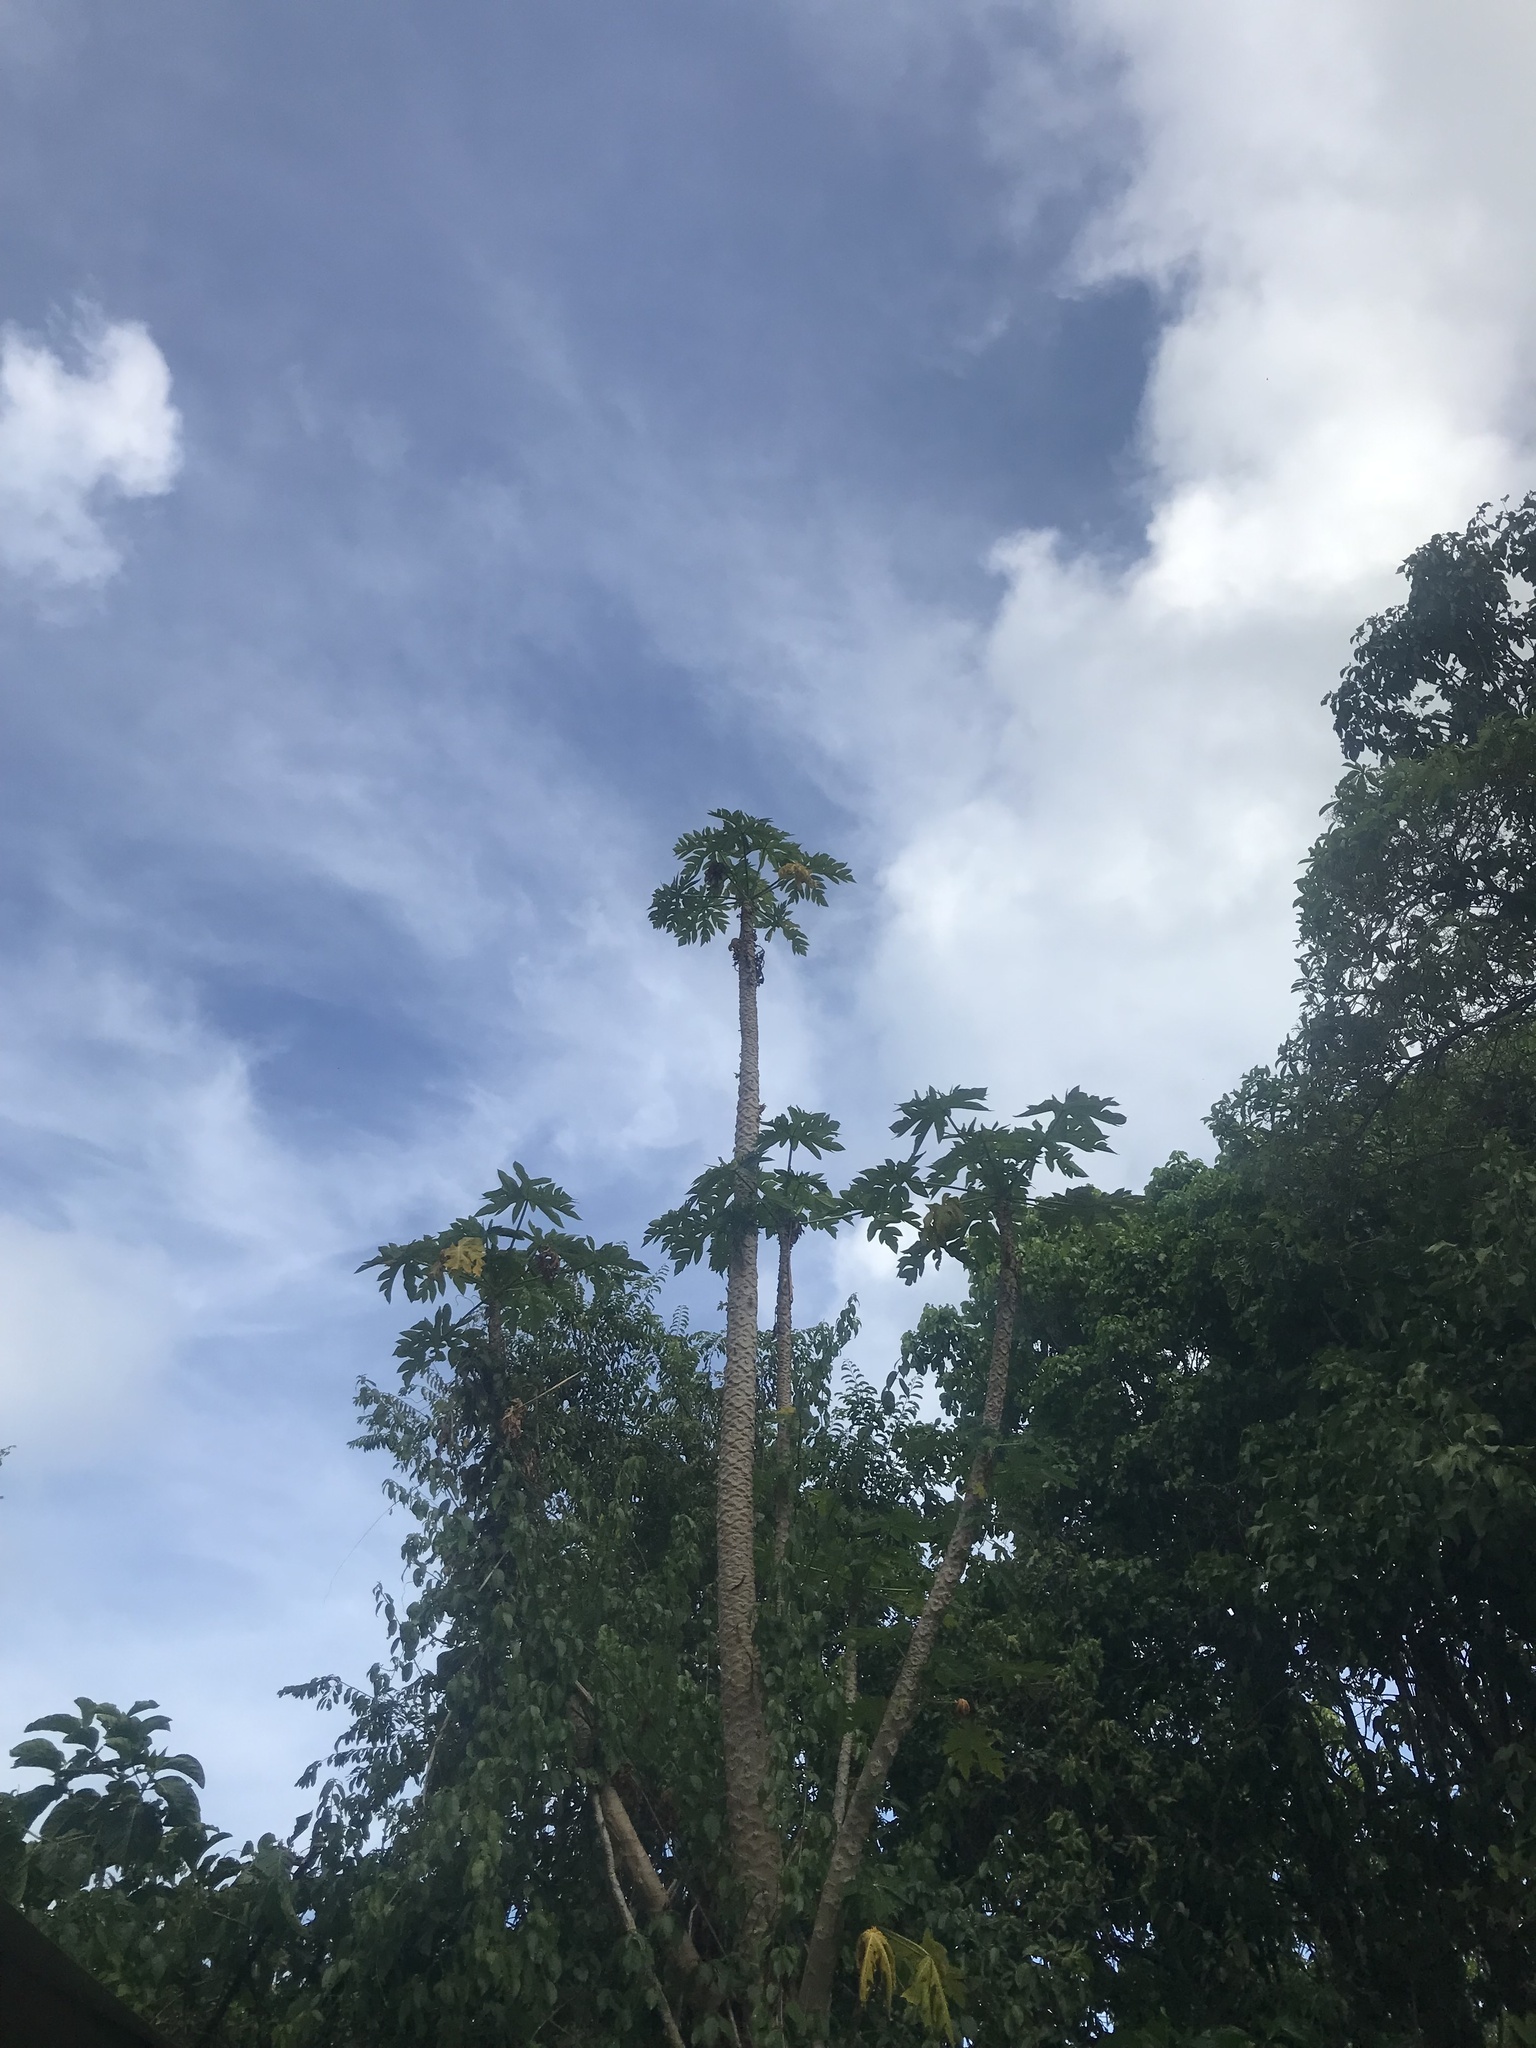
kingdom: Plantae
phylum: Tracheophyta
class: Magnoliopsida
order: Brassicales
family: Caricaceae
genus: Carica
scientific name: Carica papaya
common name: Papaya
